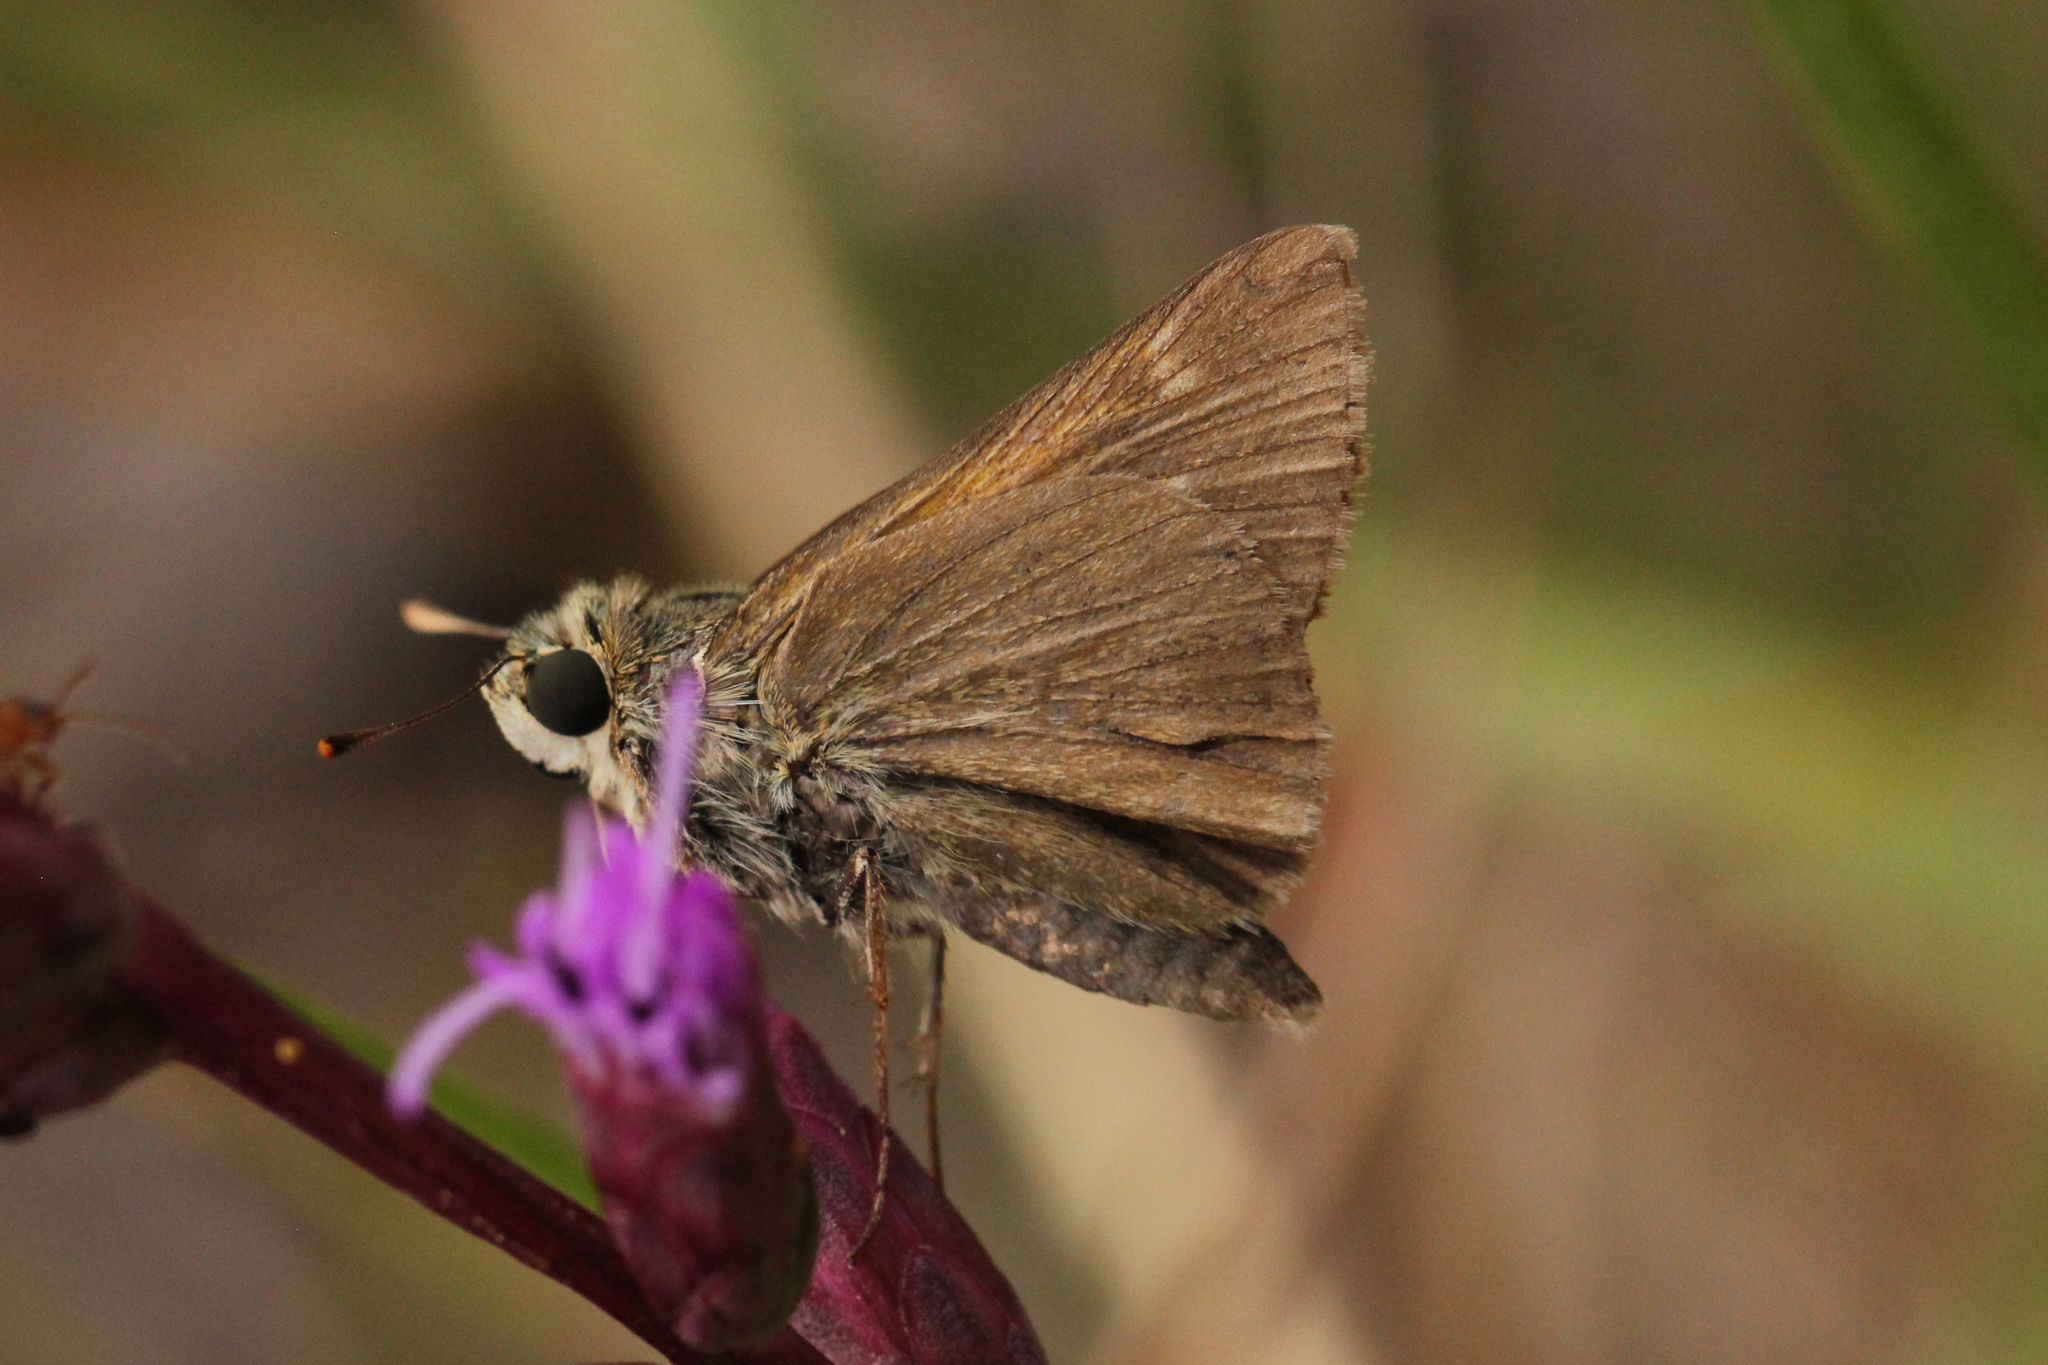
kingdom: Animalia
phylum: Arthropoda
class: Insecta
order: Lepidoptera
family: Hesperiidae
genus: Polites
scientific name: Polites themistocles
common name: Tawny-edged skipper
